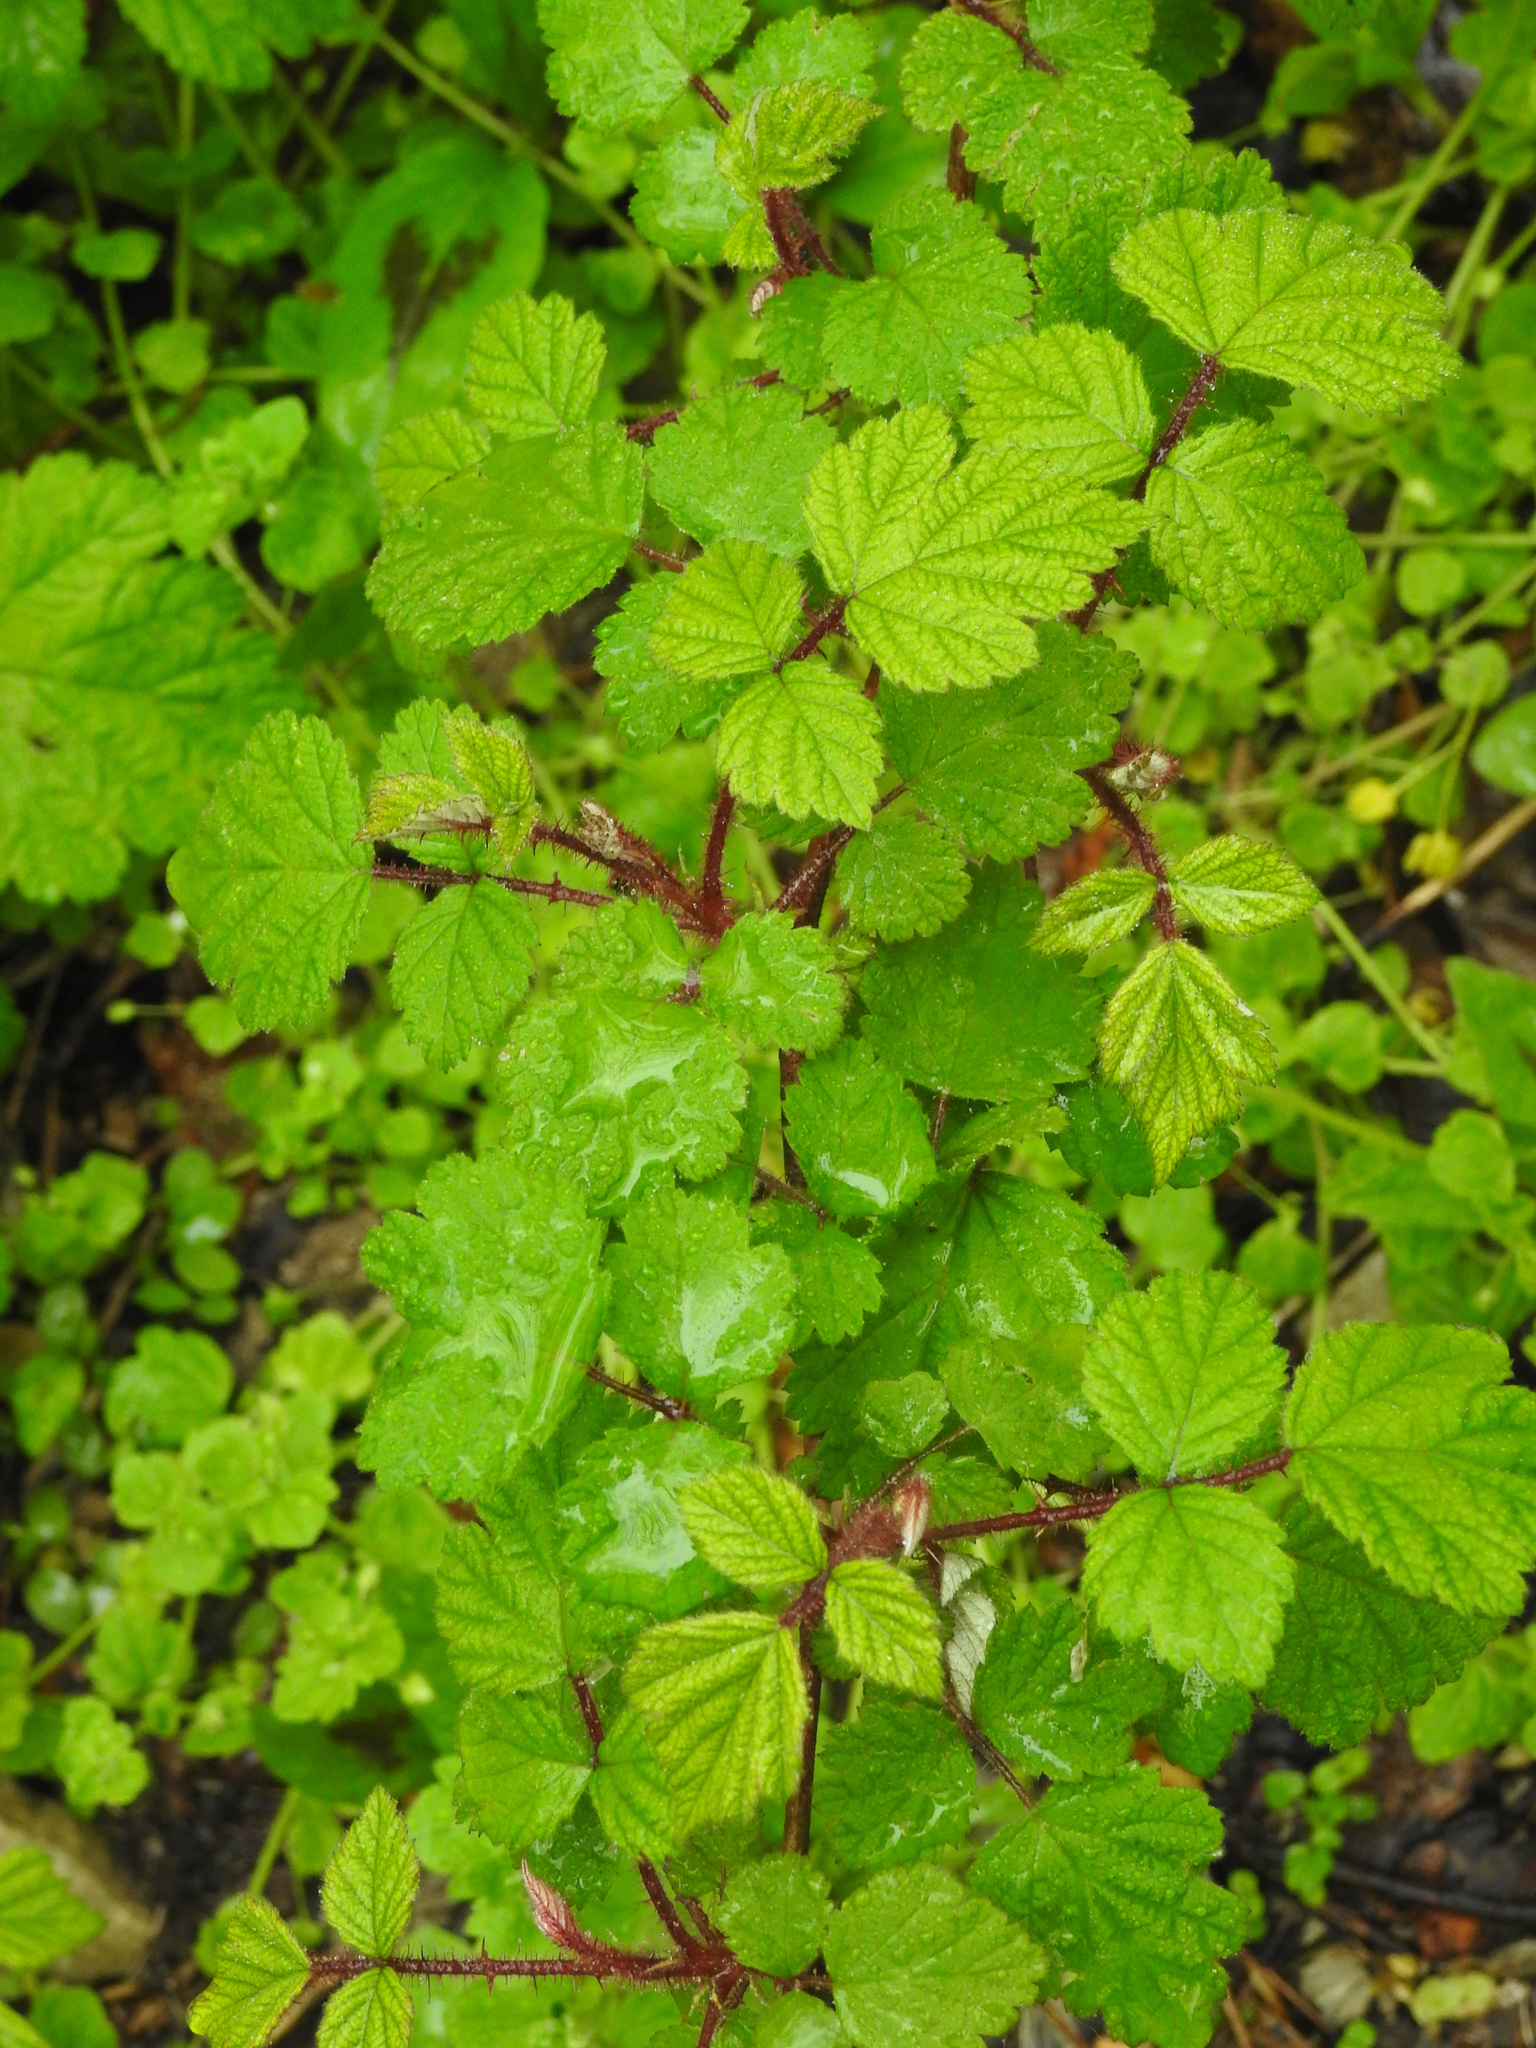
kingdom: Plantae
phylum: Tracheophyta
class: Magnoliopsida
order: Rosales
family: Rosaceae
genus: Rubus
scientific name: Rubus phoenicolasius
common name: Japanese wineberry
